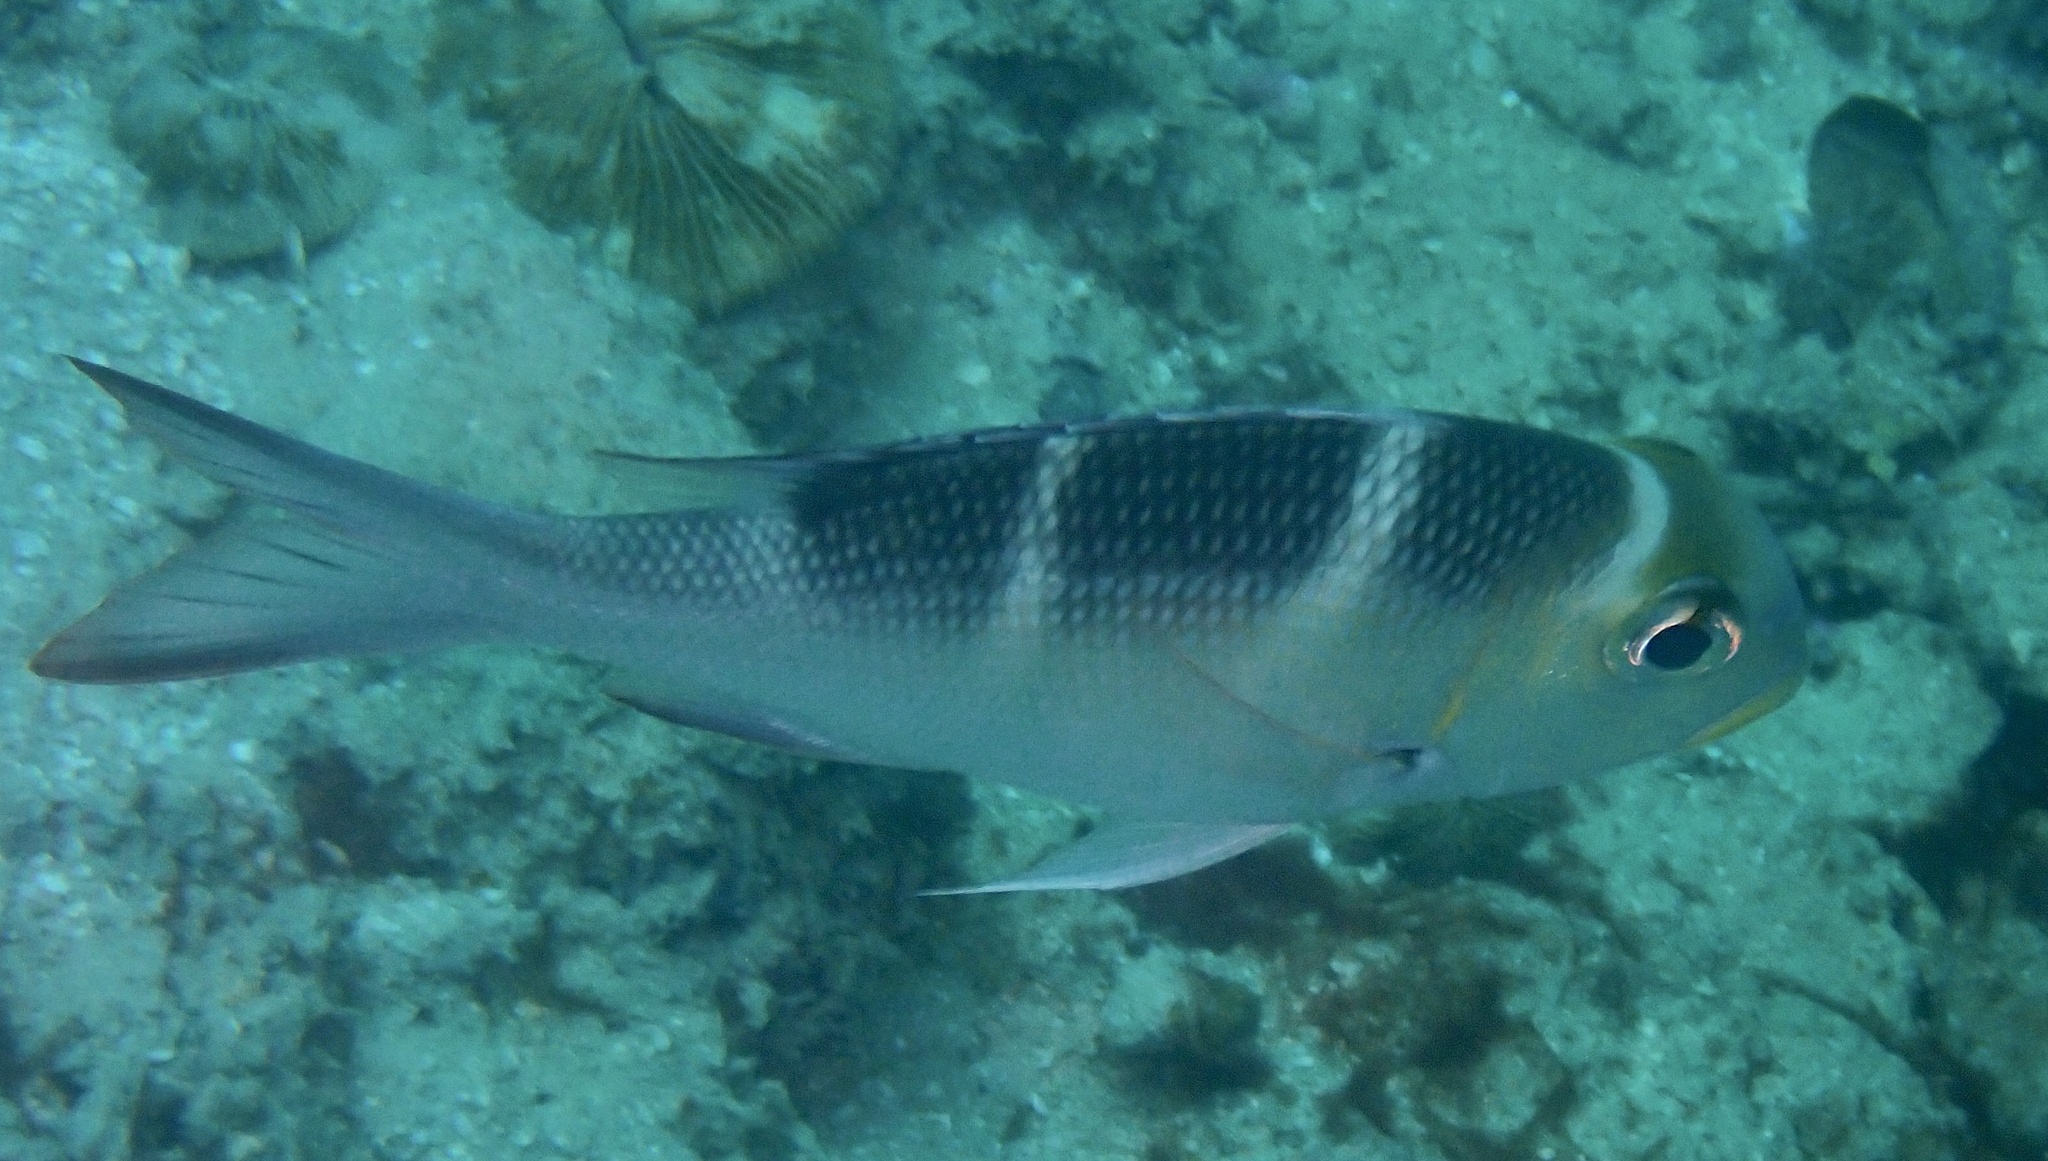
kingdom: Animalia
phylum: Chordata
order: Perciformes
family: Lethrinidae
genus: Monotaxis
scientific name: Monotaxis grandoculis
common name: Bigeye emperor
